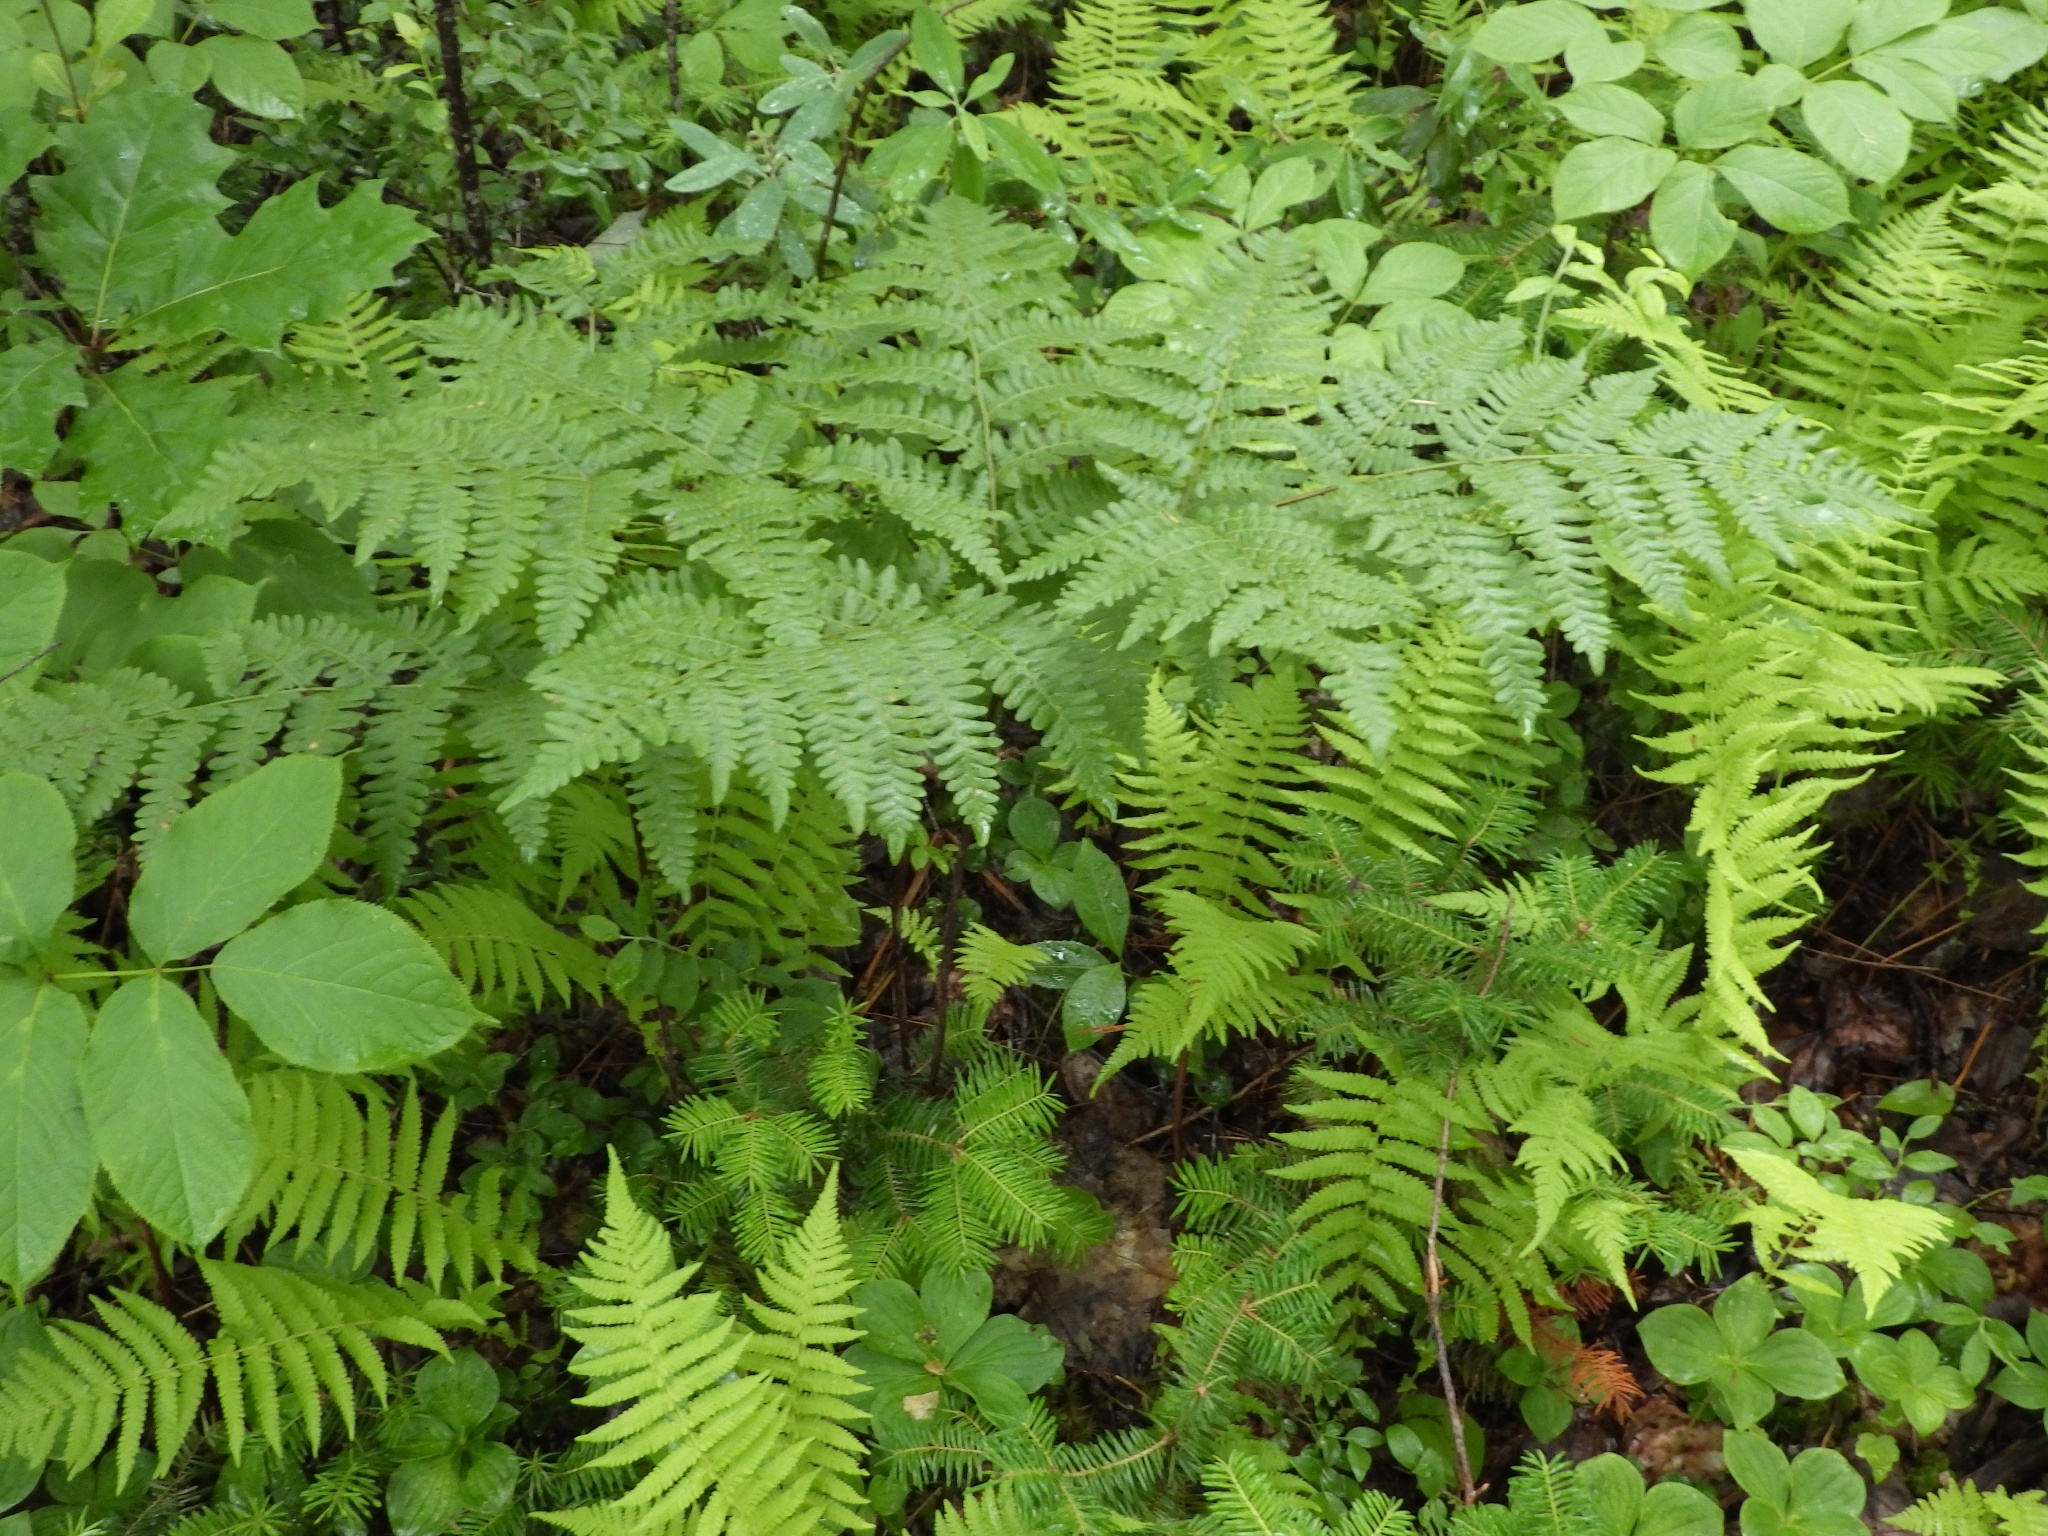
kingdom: Plantae
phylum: Tracheophyta
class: Polypodiopsida
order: Polypodiales
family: Dennstaedtiaceae
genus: Pteridium
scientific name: Pteridium aquilinum
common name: Bracken
